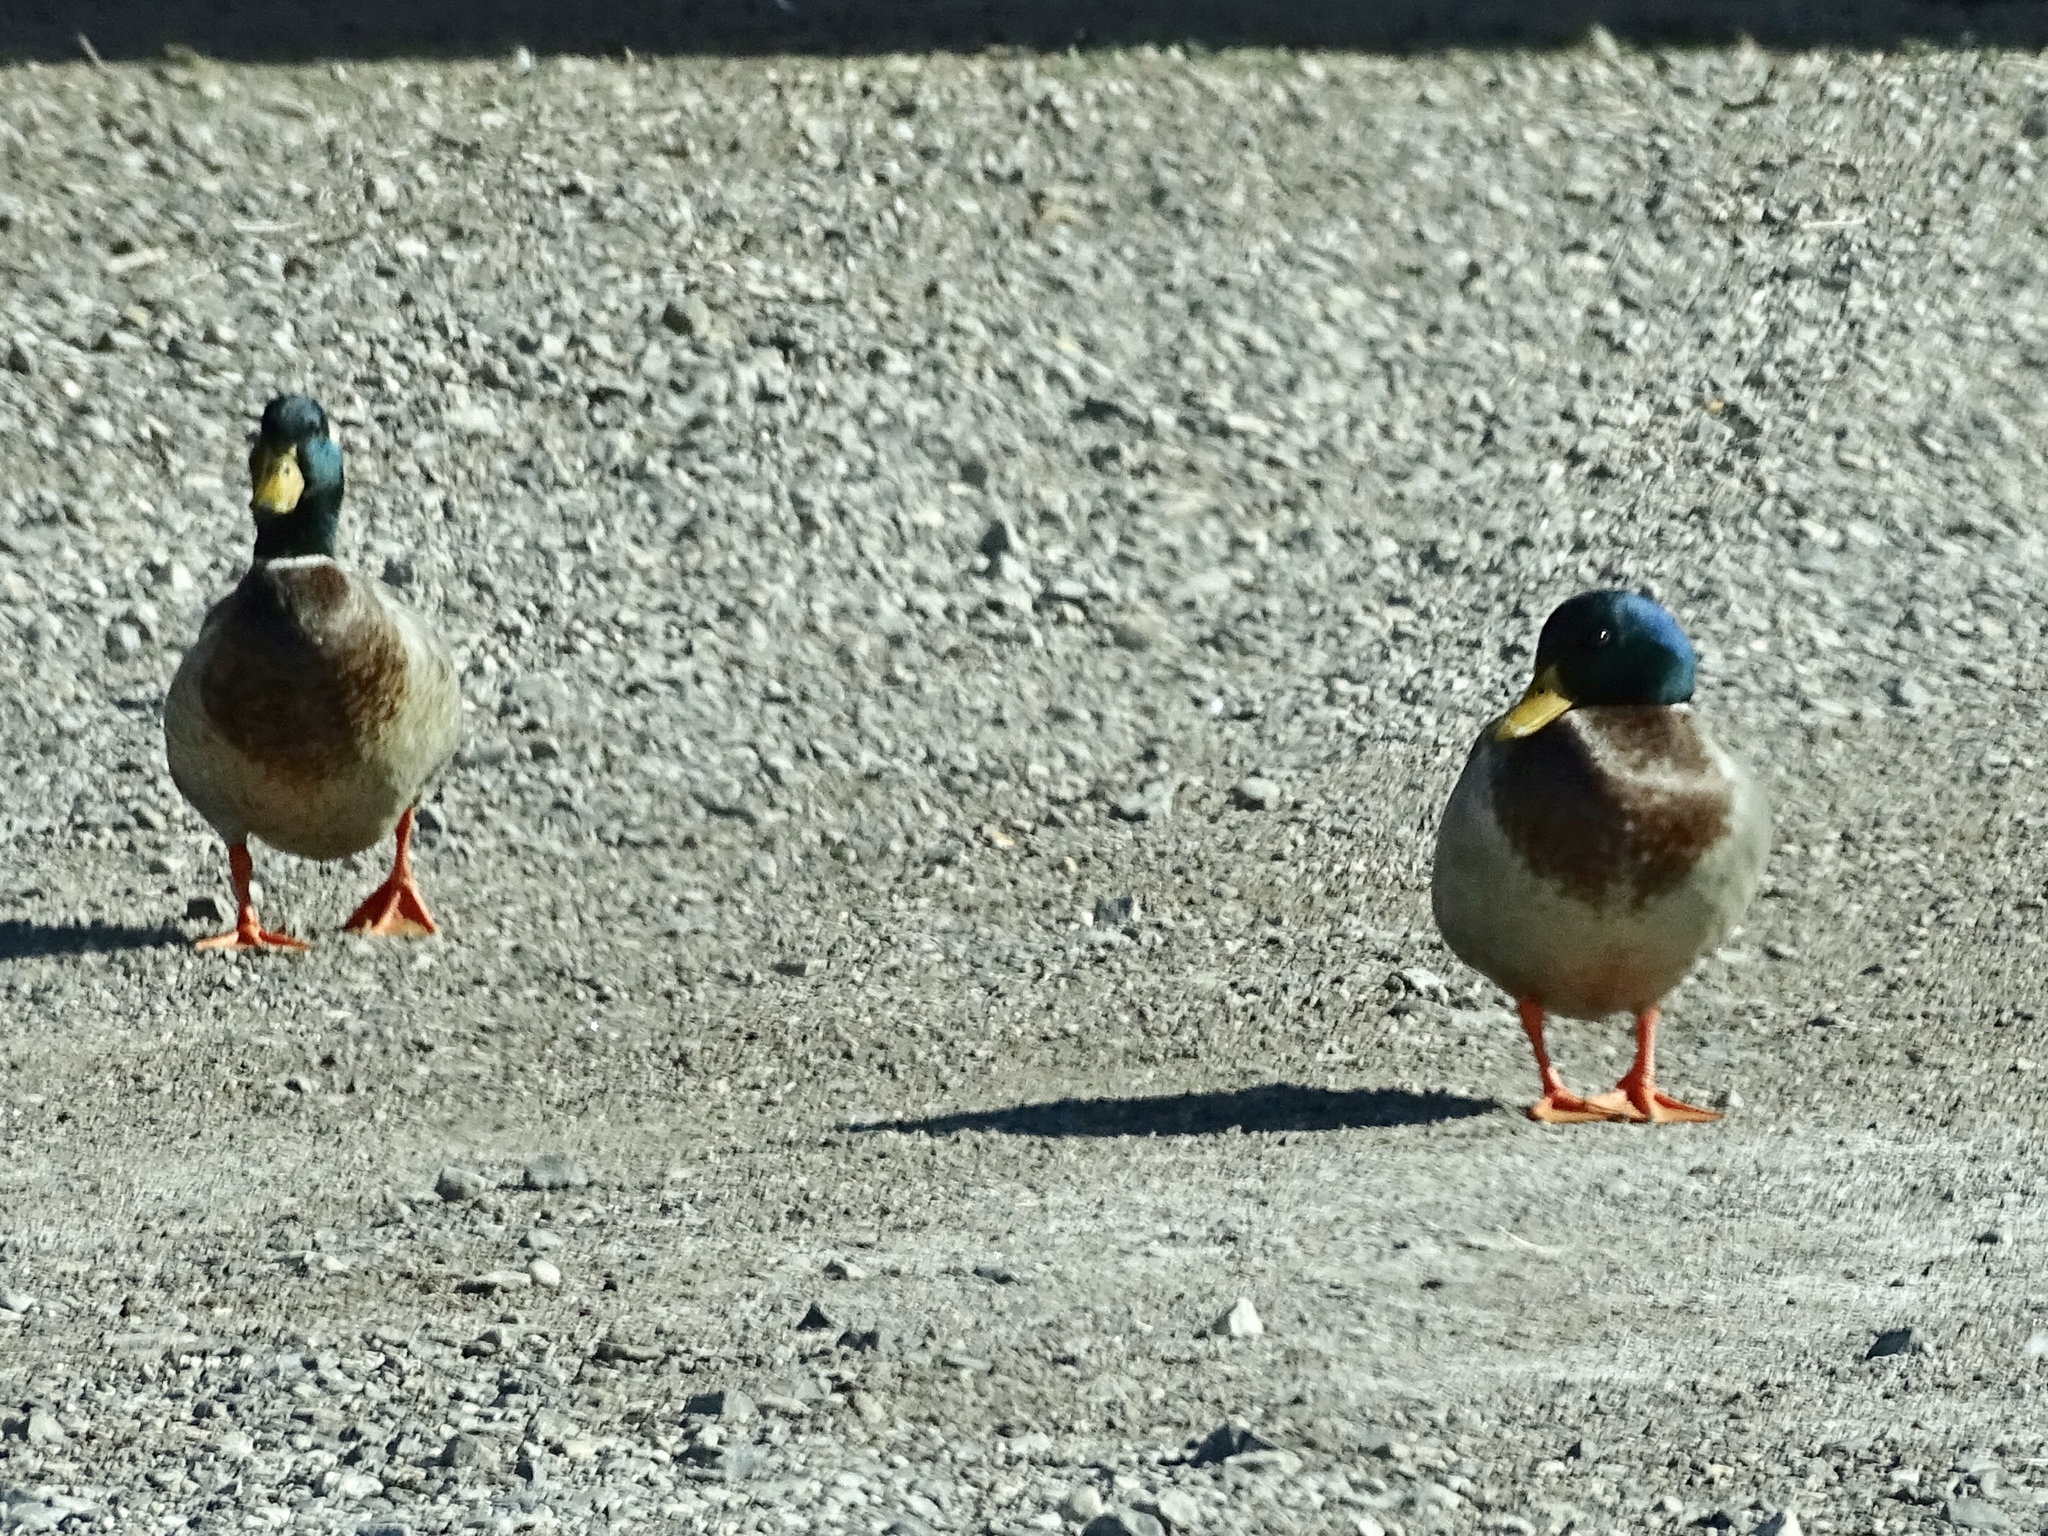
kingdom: Animalia
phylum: Chordata
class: Aves
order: Anseriformes
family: Anatidae
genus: Anas
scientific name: Anas platyrhynchos
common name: Mallard
